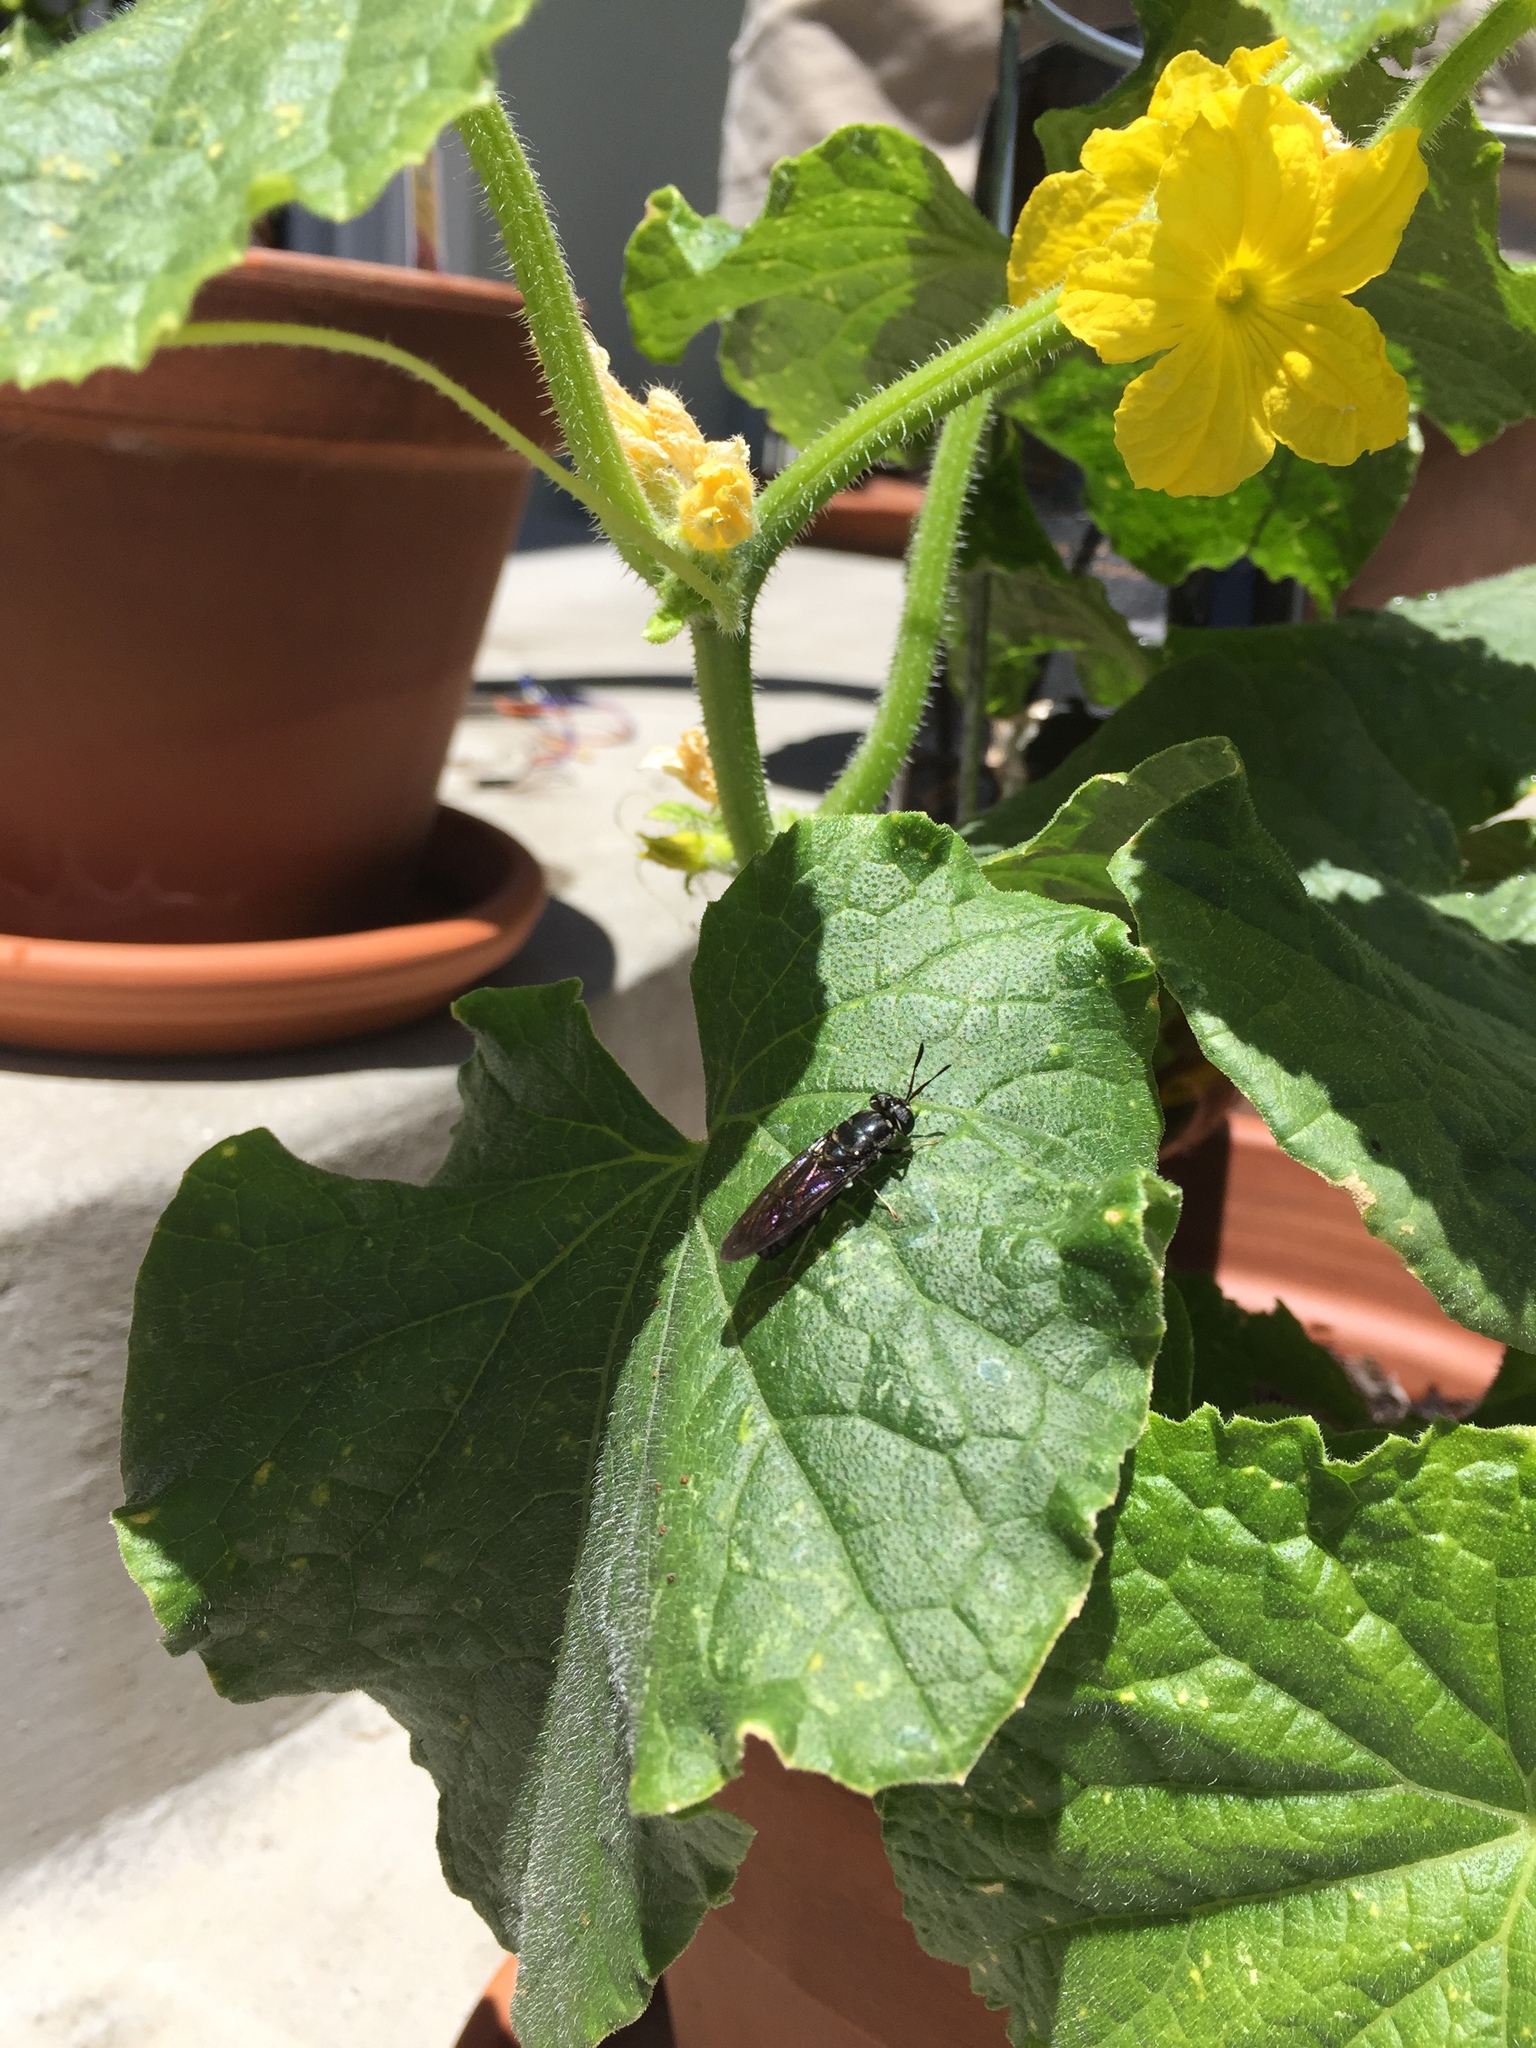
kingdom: Animalia
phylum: Arthropoda
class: Insecta
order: Diptera
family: Stratiomyidae
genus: Hermetia
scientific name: Hermetia illucens
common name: Black soldier fly
